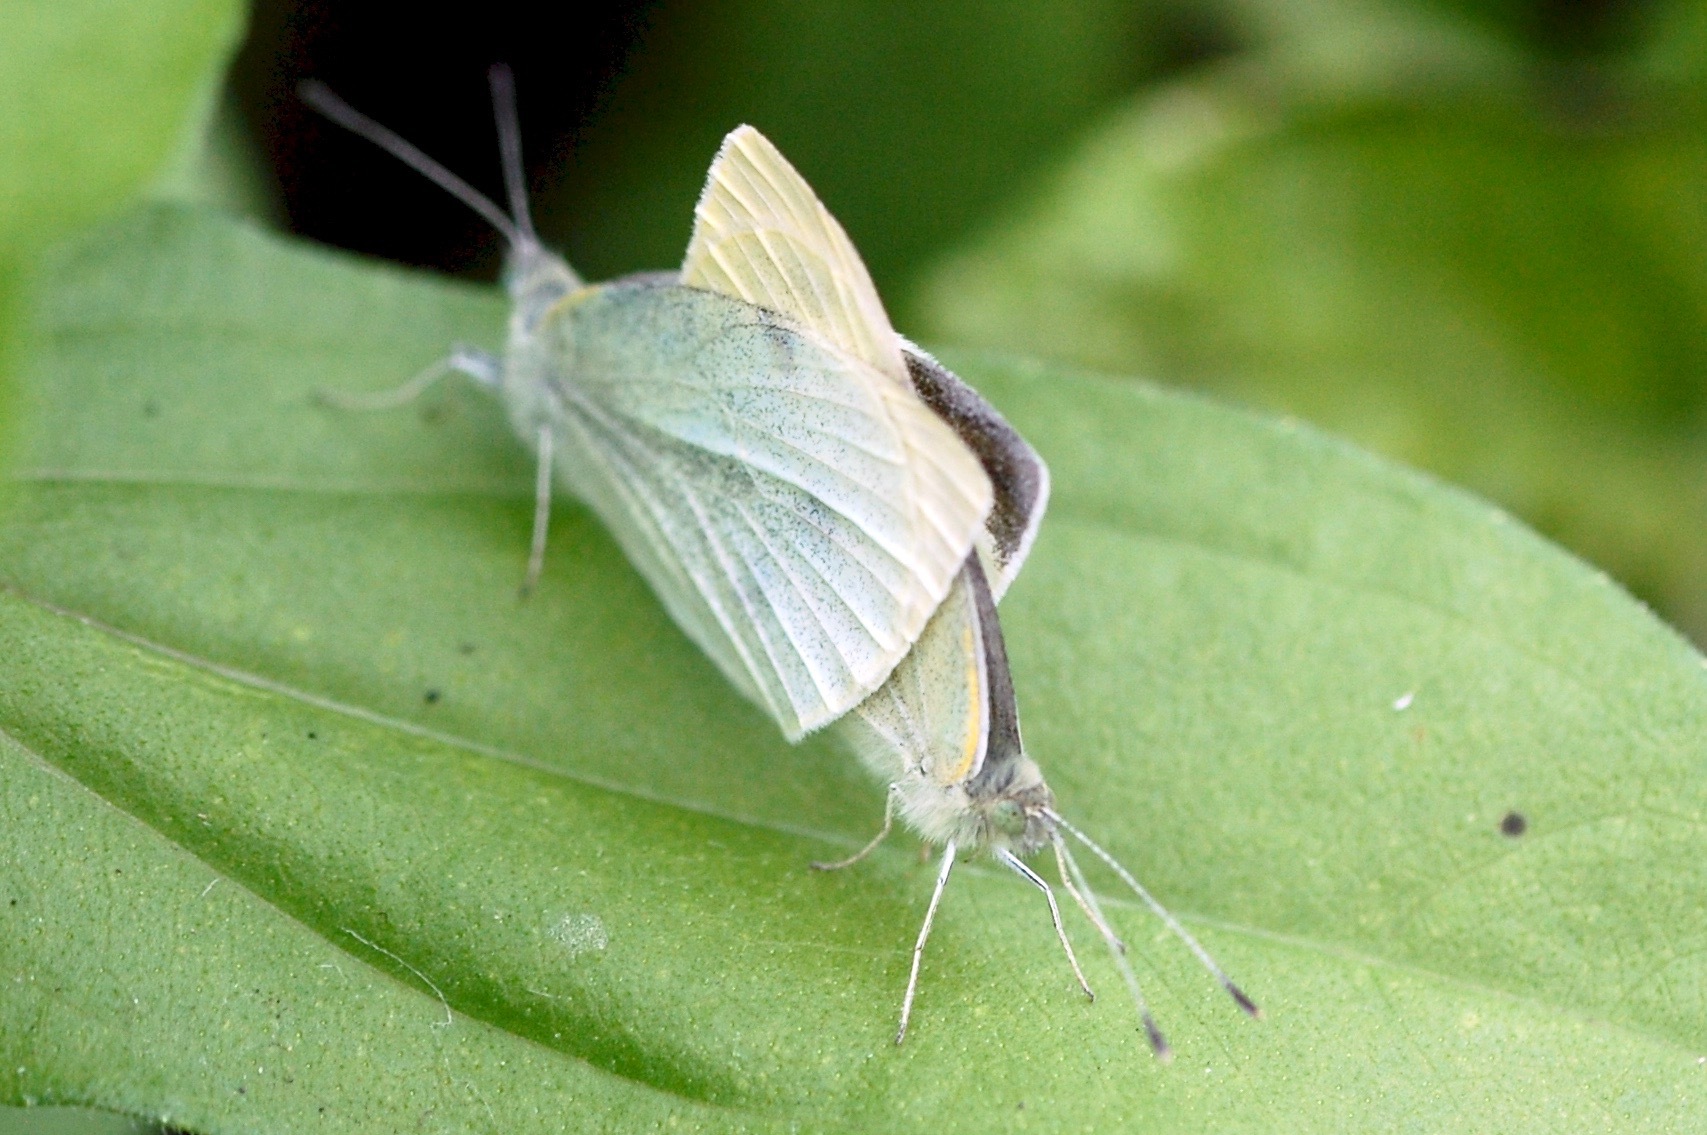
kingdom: Animalia
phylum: Arthropoda
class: Insecta
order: Lepidoptera
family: Pieridae
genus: Pieris
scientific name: Pieris rapae
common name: Small white
